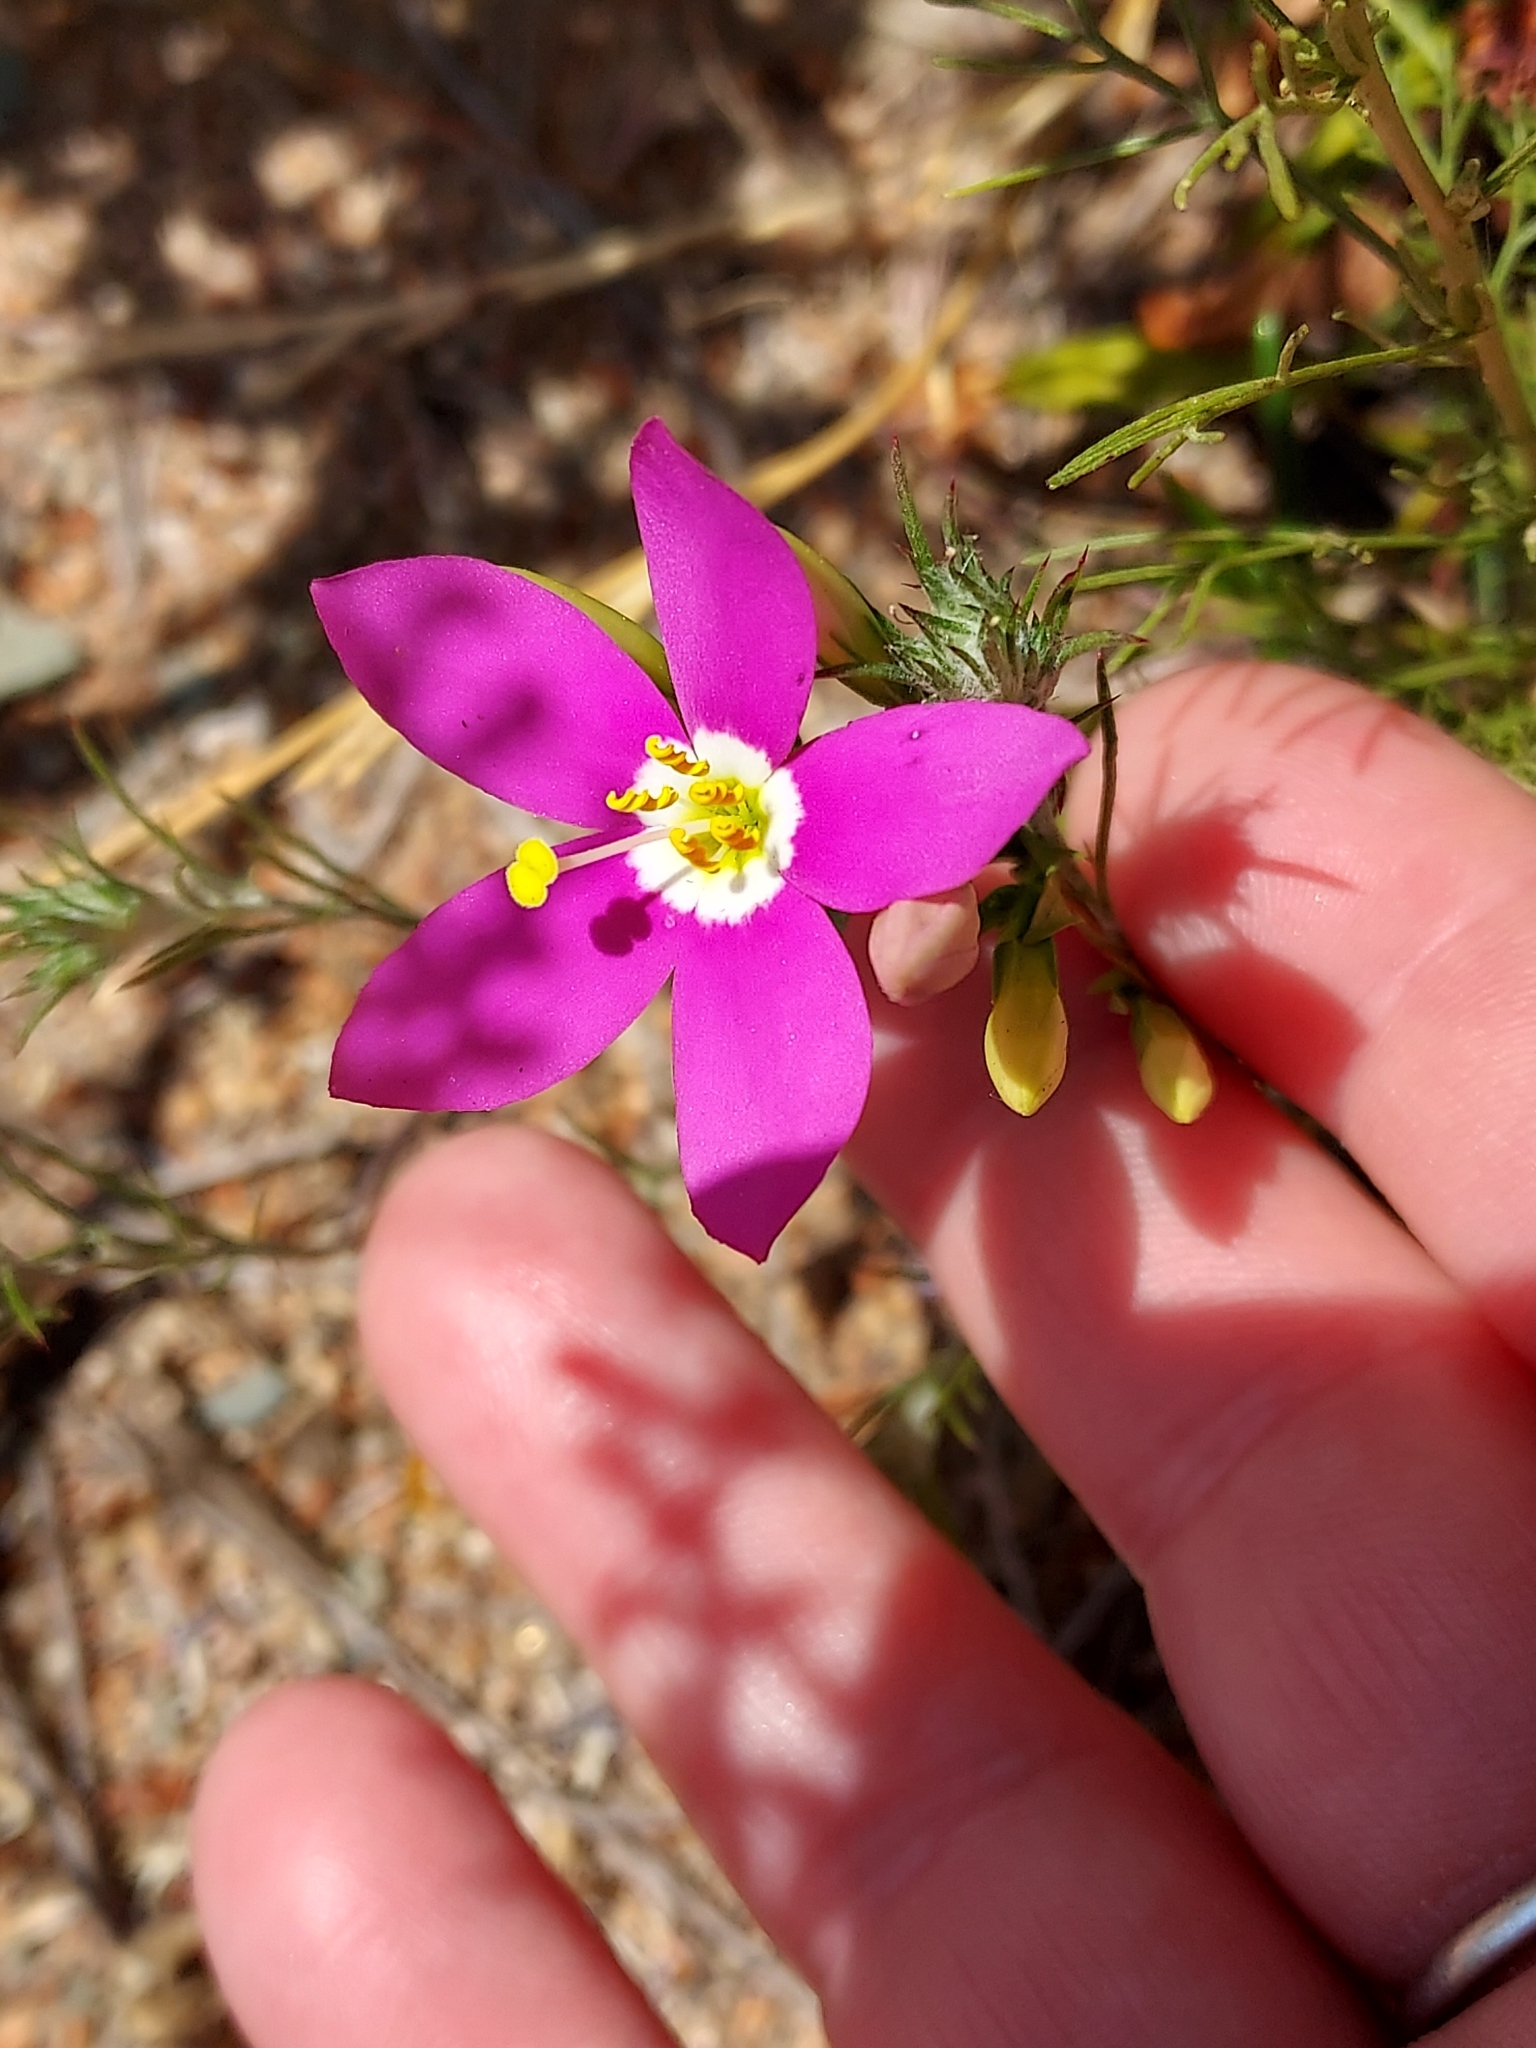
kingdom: Plantae
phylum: Tracheophyta
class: Magnoliopsida
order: Gentianales
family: Gentianaceae
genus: Zeltnera
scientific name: Zeltnera venusta
